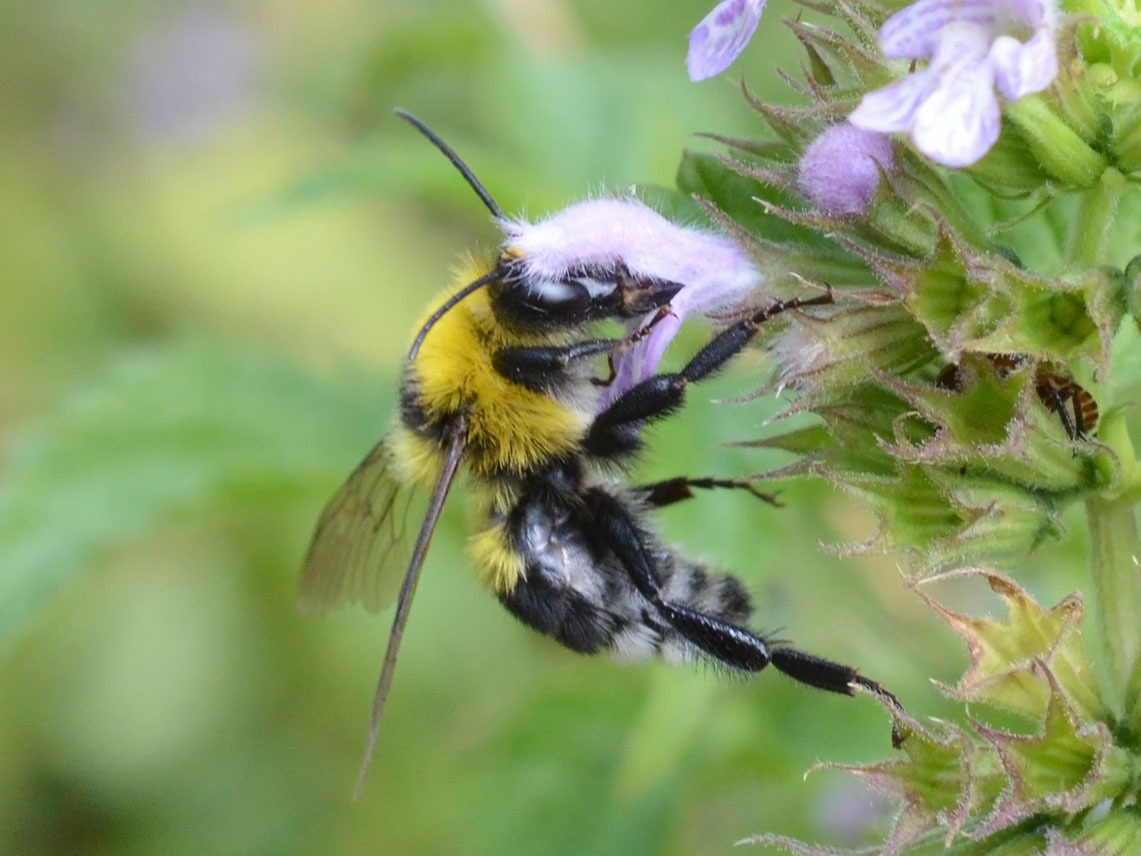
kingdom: Animalia
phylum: Arthropoda
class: Insecta
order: Hymenoptera
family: Apidae
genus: Bombus
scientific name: Bombus argillaceus
